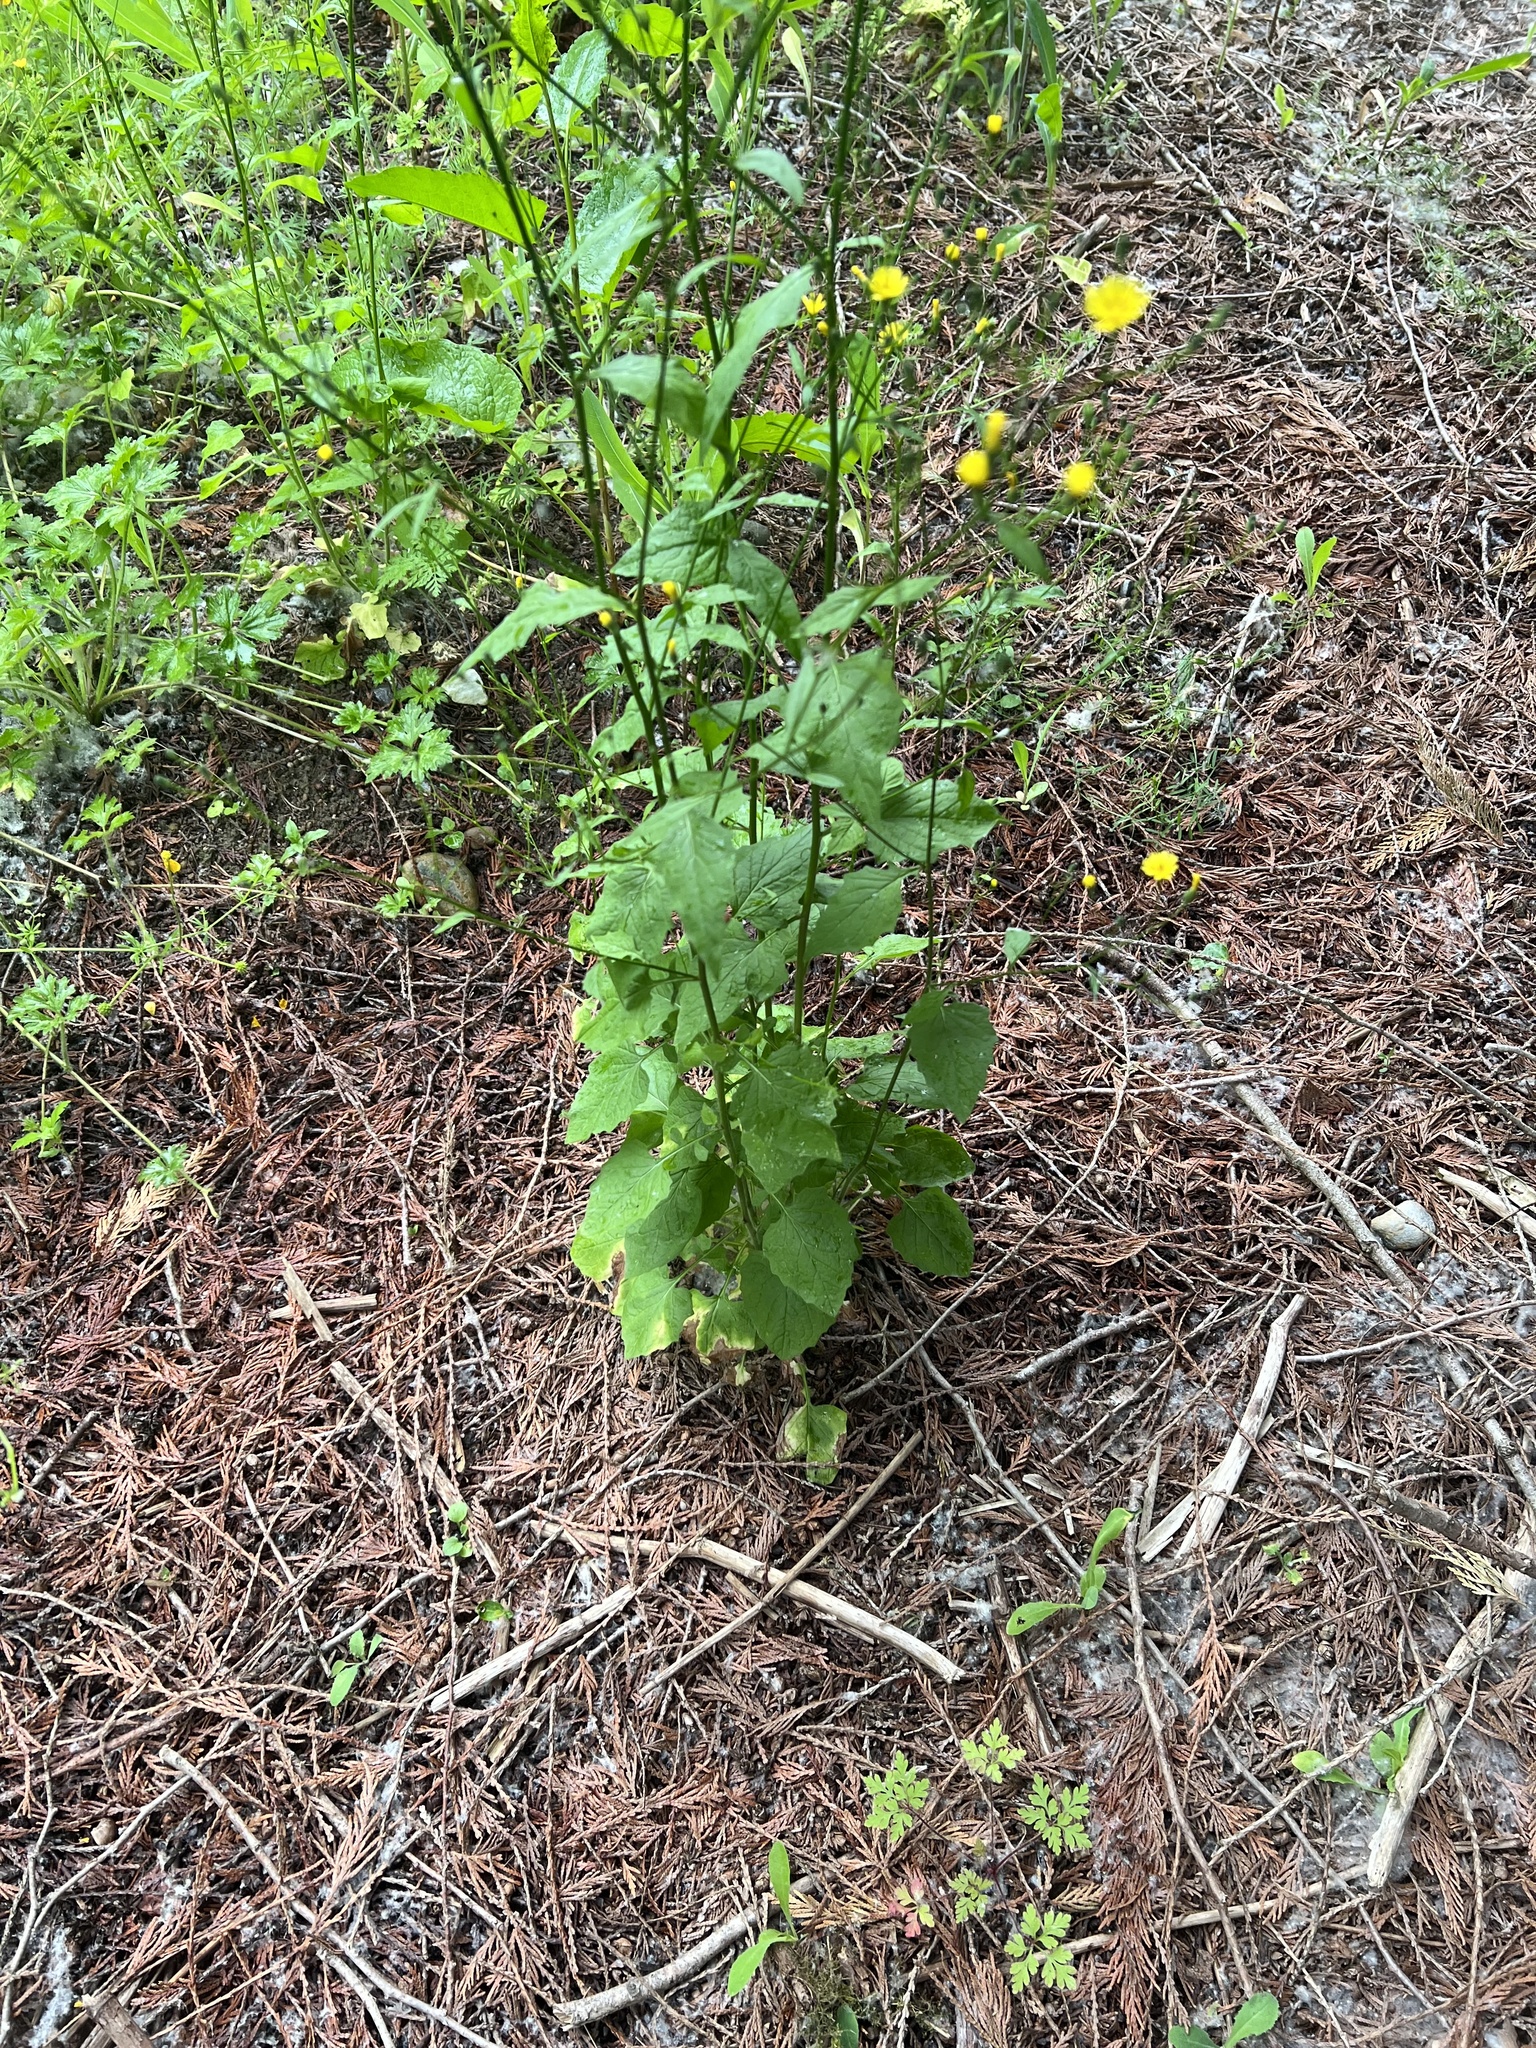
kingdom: Plantae
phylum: Tracheophyta
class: Magnoliopsida
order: Asterales
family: Asteraceae
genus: Lapsana
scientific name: Lapsana communis
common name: Nipplewort
